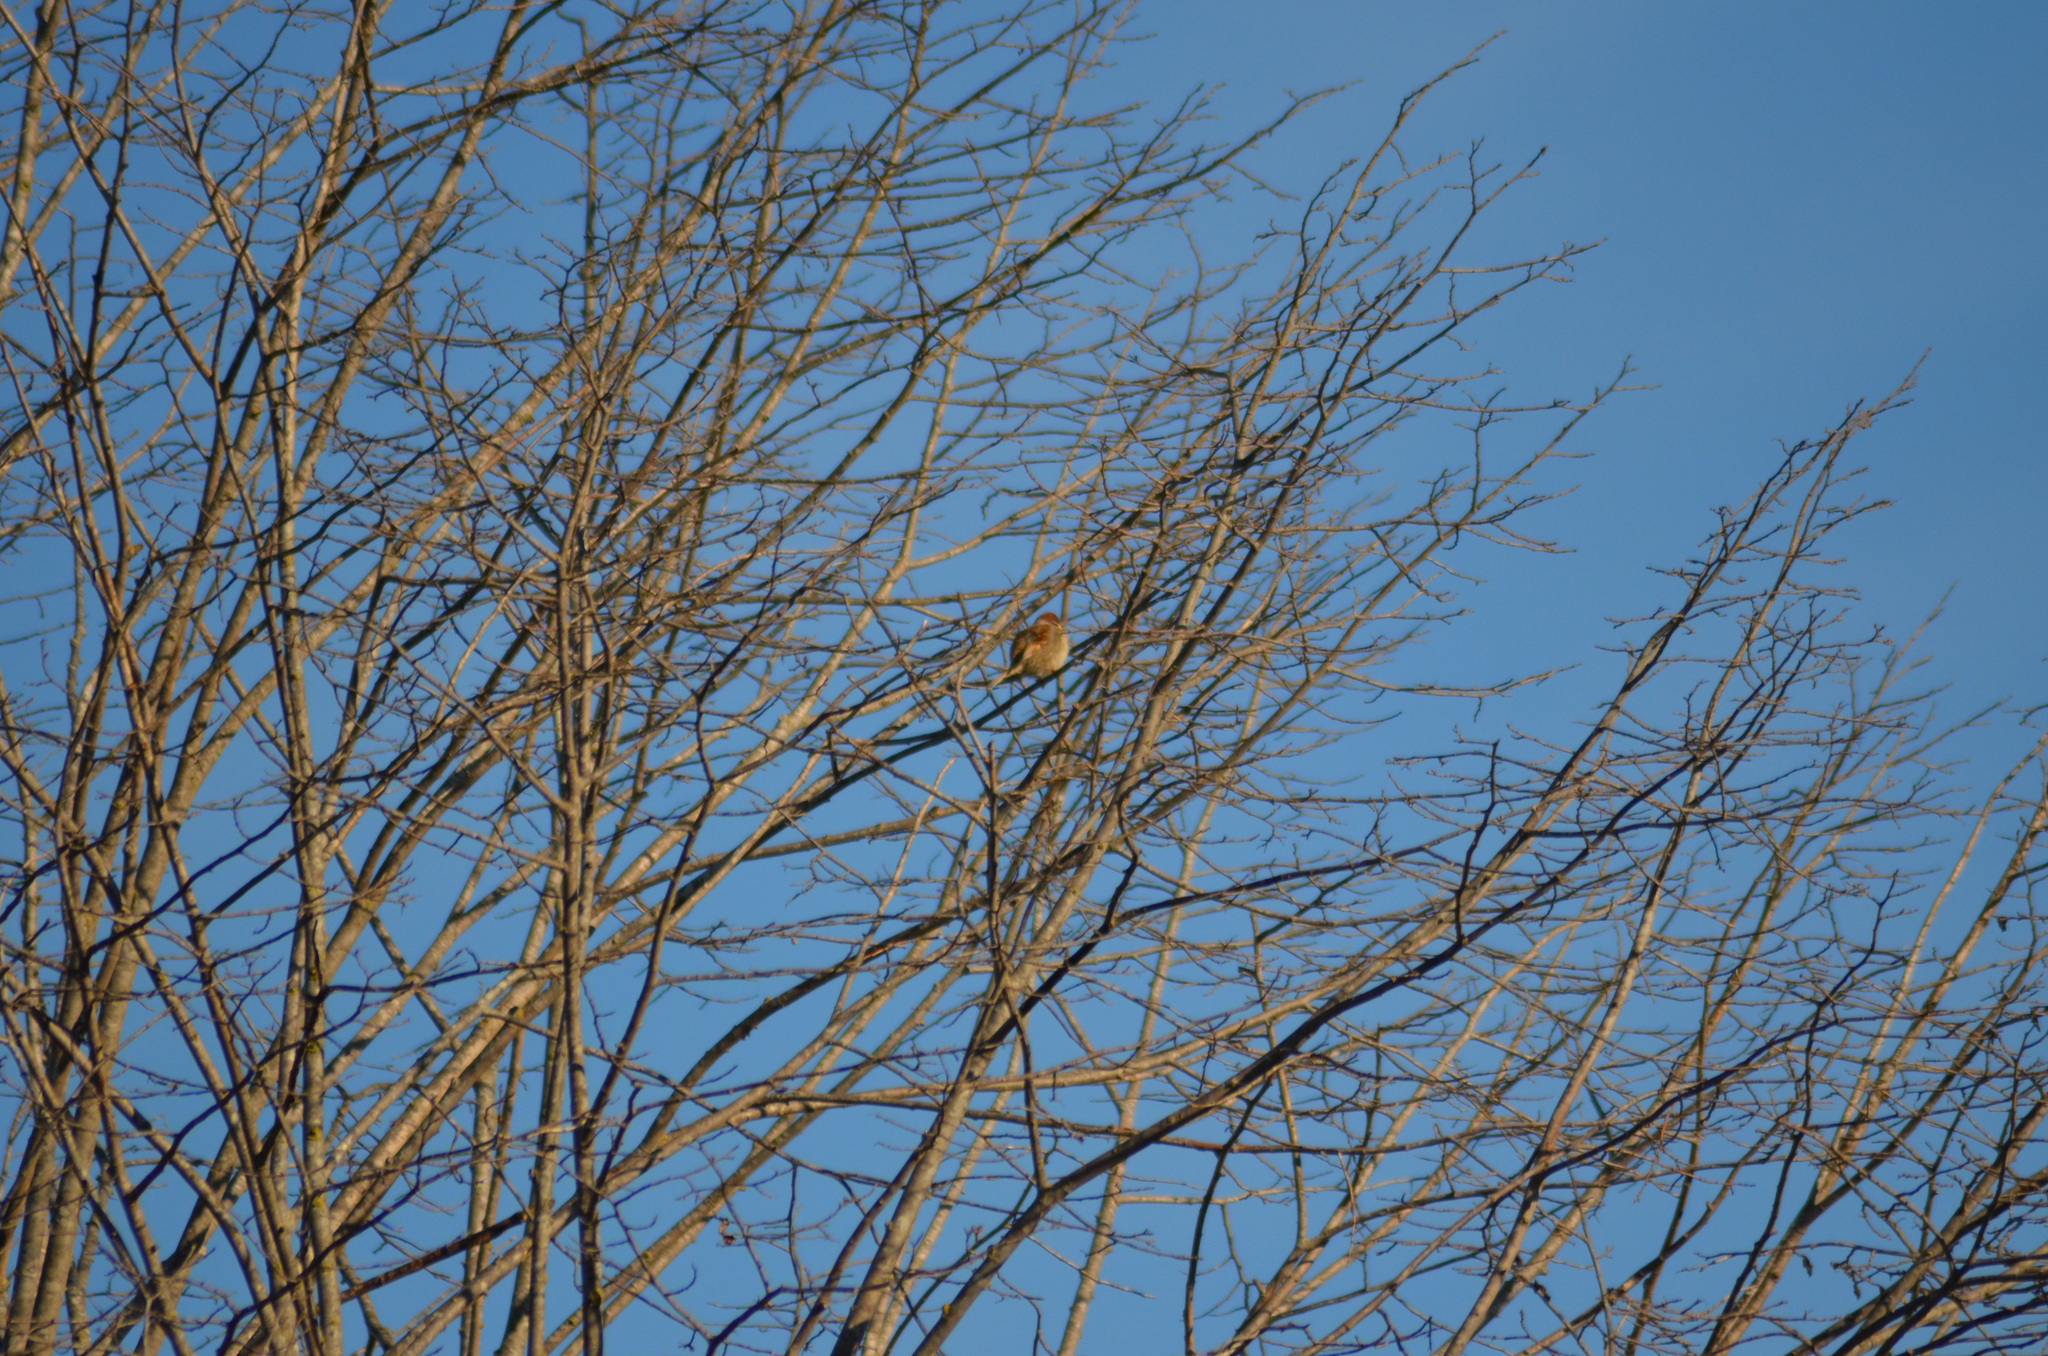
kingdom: Animalia
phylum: Chordata
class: Aves
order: Passeriformes
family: Passeridae
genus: Passer
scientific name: Passer montanus
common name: Eurasian tree sparrow
